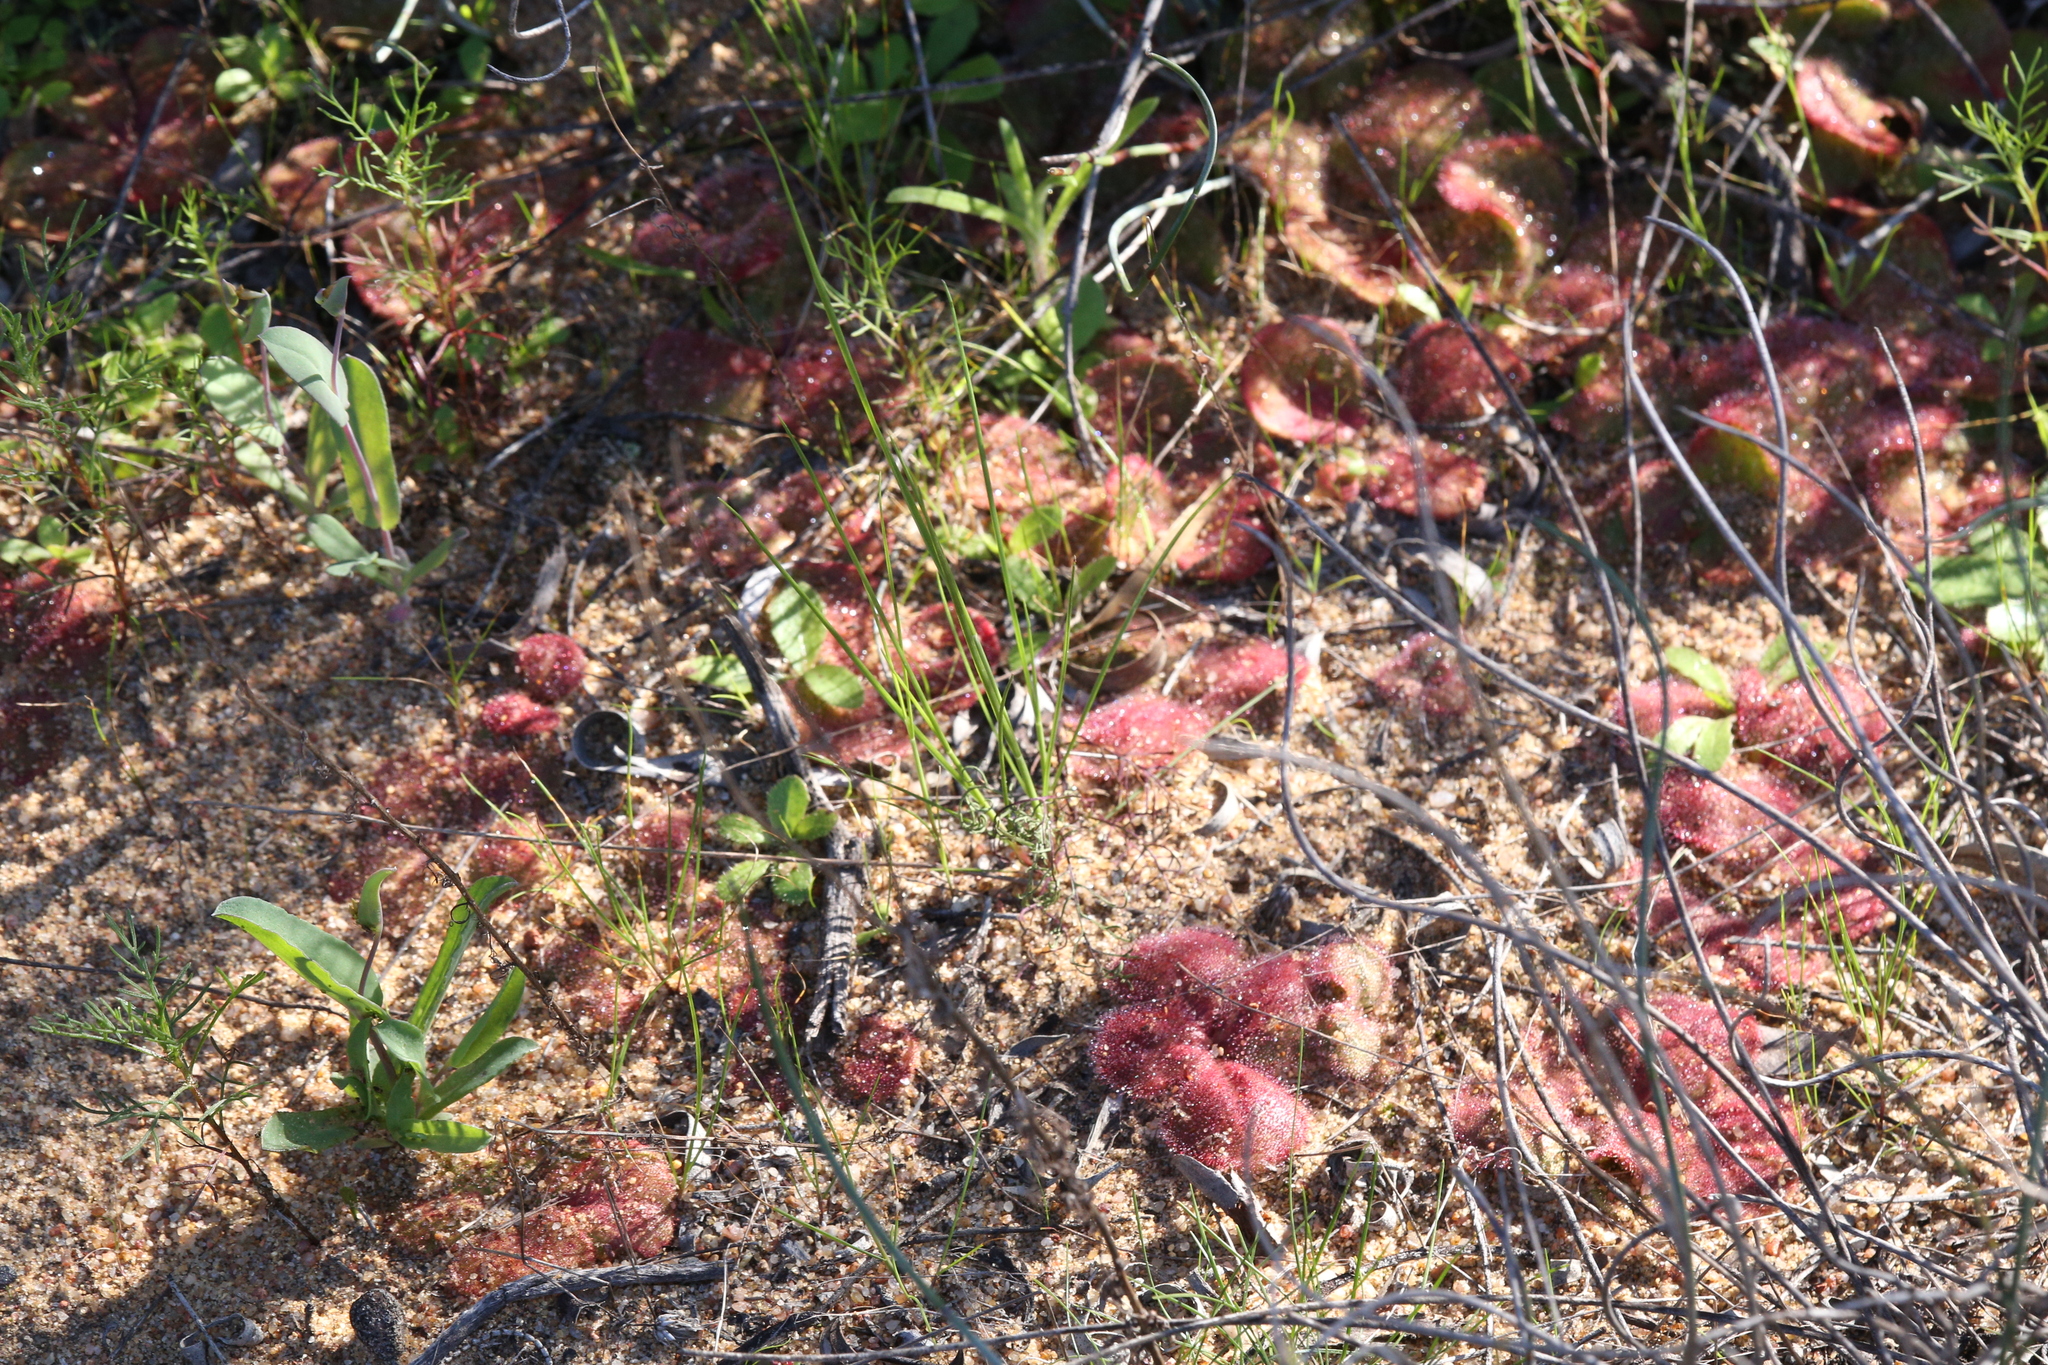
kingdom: Plantae
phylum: Tracheophyta
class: Magnoliopsida
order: Caryophyllales
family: Droseraceae
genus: Drosera
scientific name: Drosera erythrorhiza
